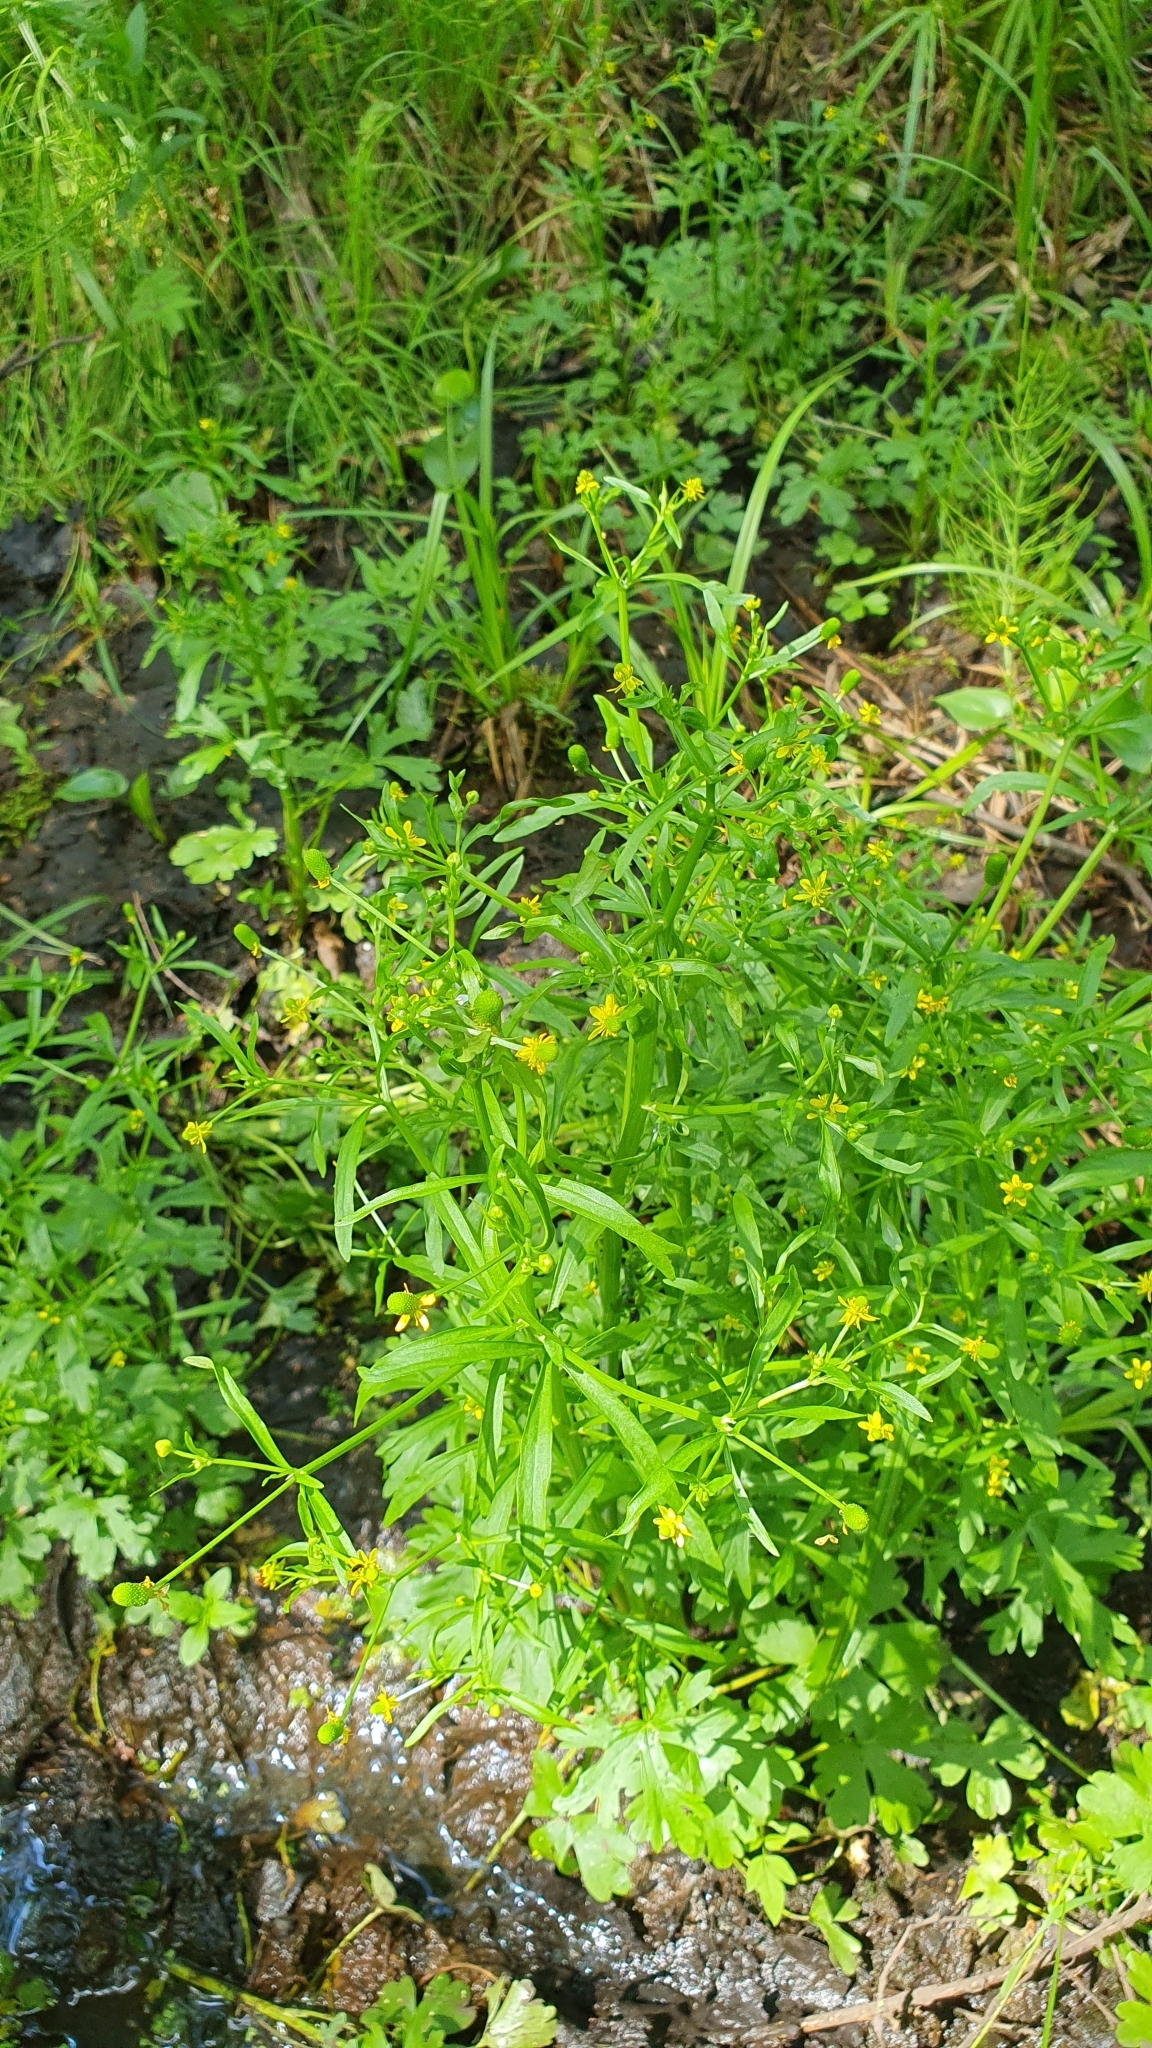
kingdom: Plantae
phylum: Tracheophyta
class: Magnoliopsida
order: Ranunculales
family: Ranunculaceae
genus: Ranunculus
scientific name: Ranunculus sceleratus
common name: Celery-leaved buttercup
